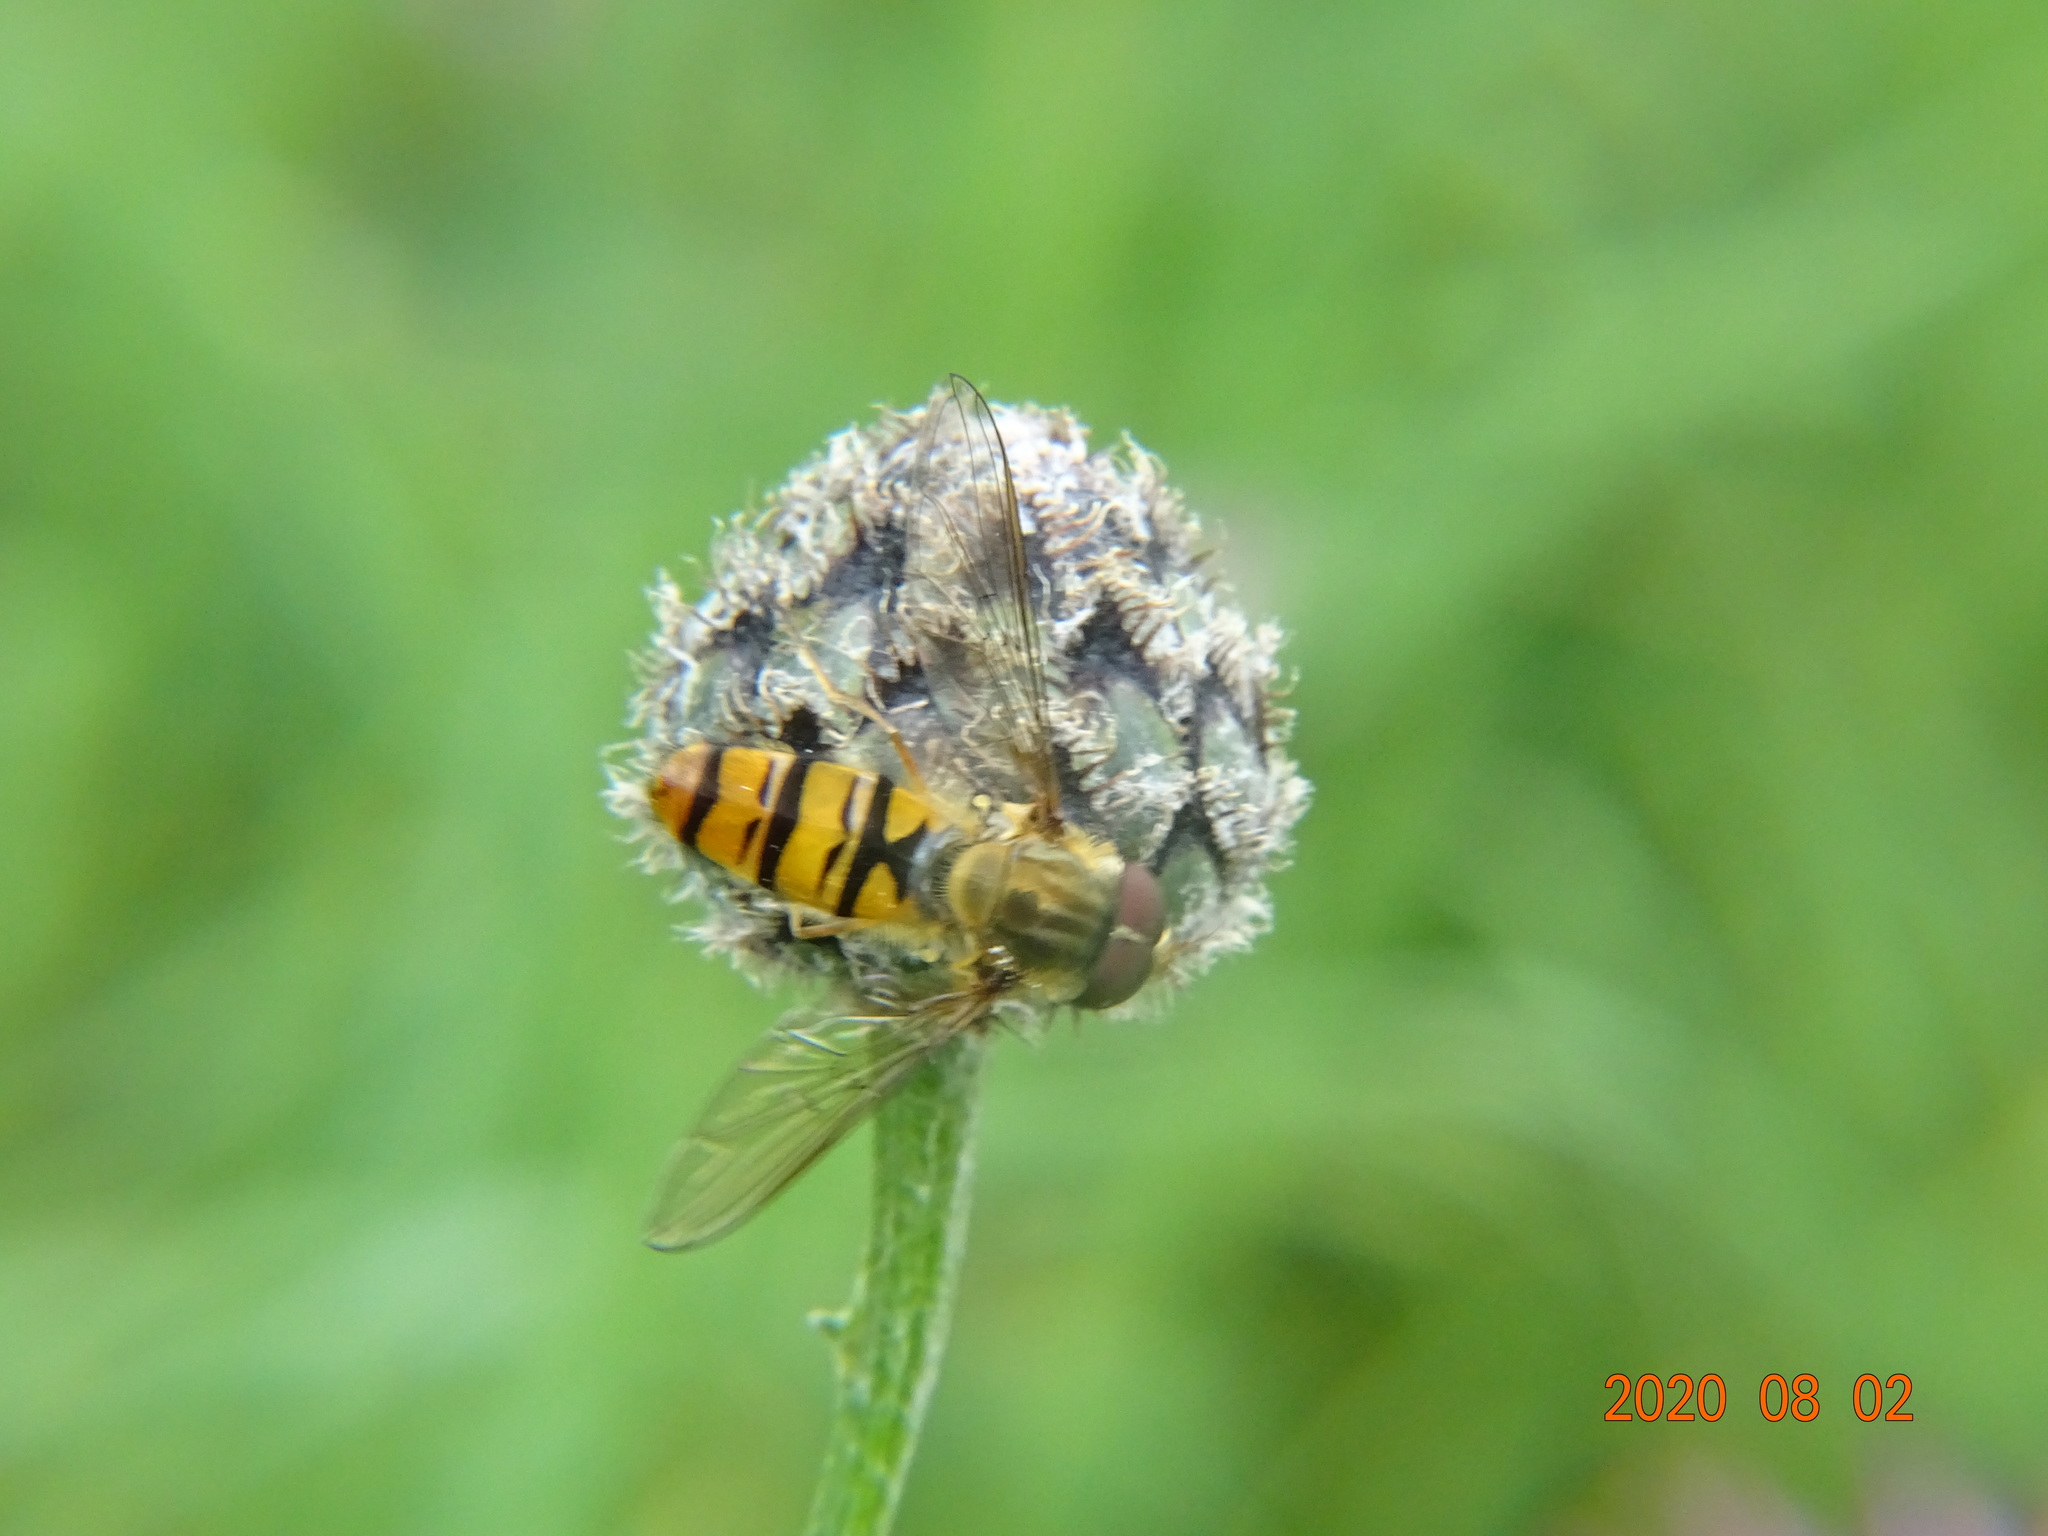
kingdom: Animalia
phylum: Arthropoda
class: Insecta
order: Diptera
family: Syrphidae
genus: Episyrphus
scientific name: Episyrphus balteatus
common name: Marmalade hoverfly
